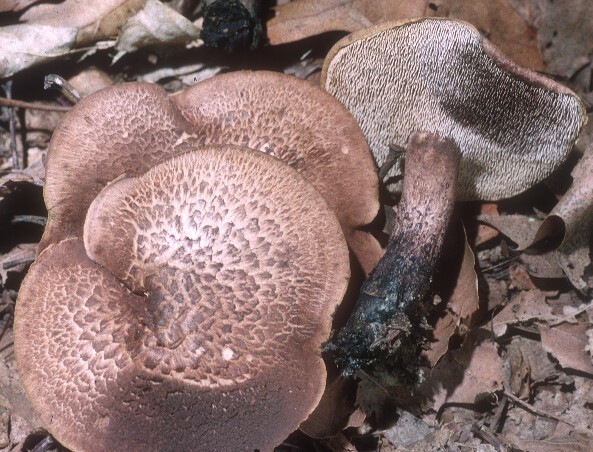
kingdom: Fungi
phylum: Basidiomycota
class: Agaricomycetes
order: Thelephorales
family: Bankeraceae
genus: Hydnellum
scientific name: Hydnellum scabrosum
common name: Bitter tooth
